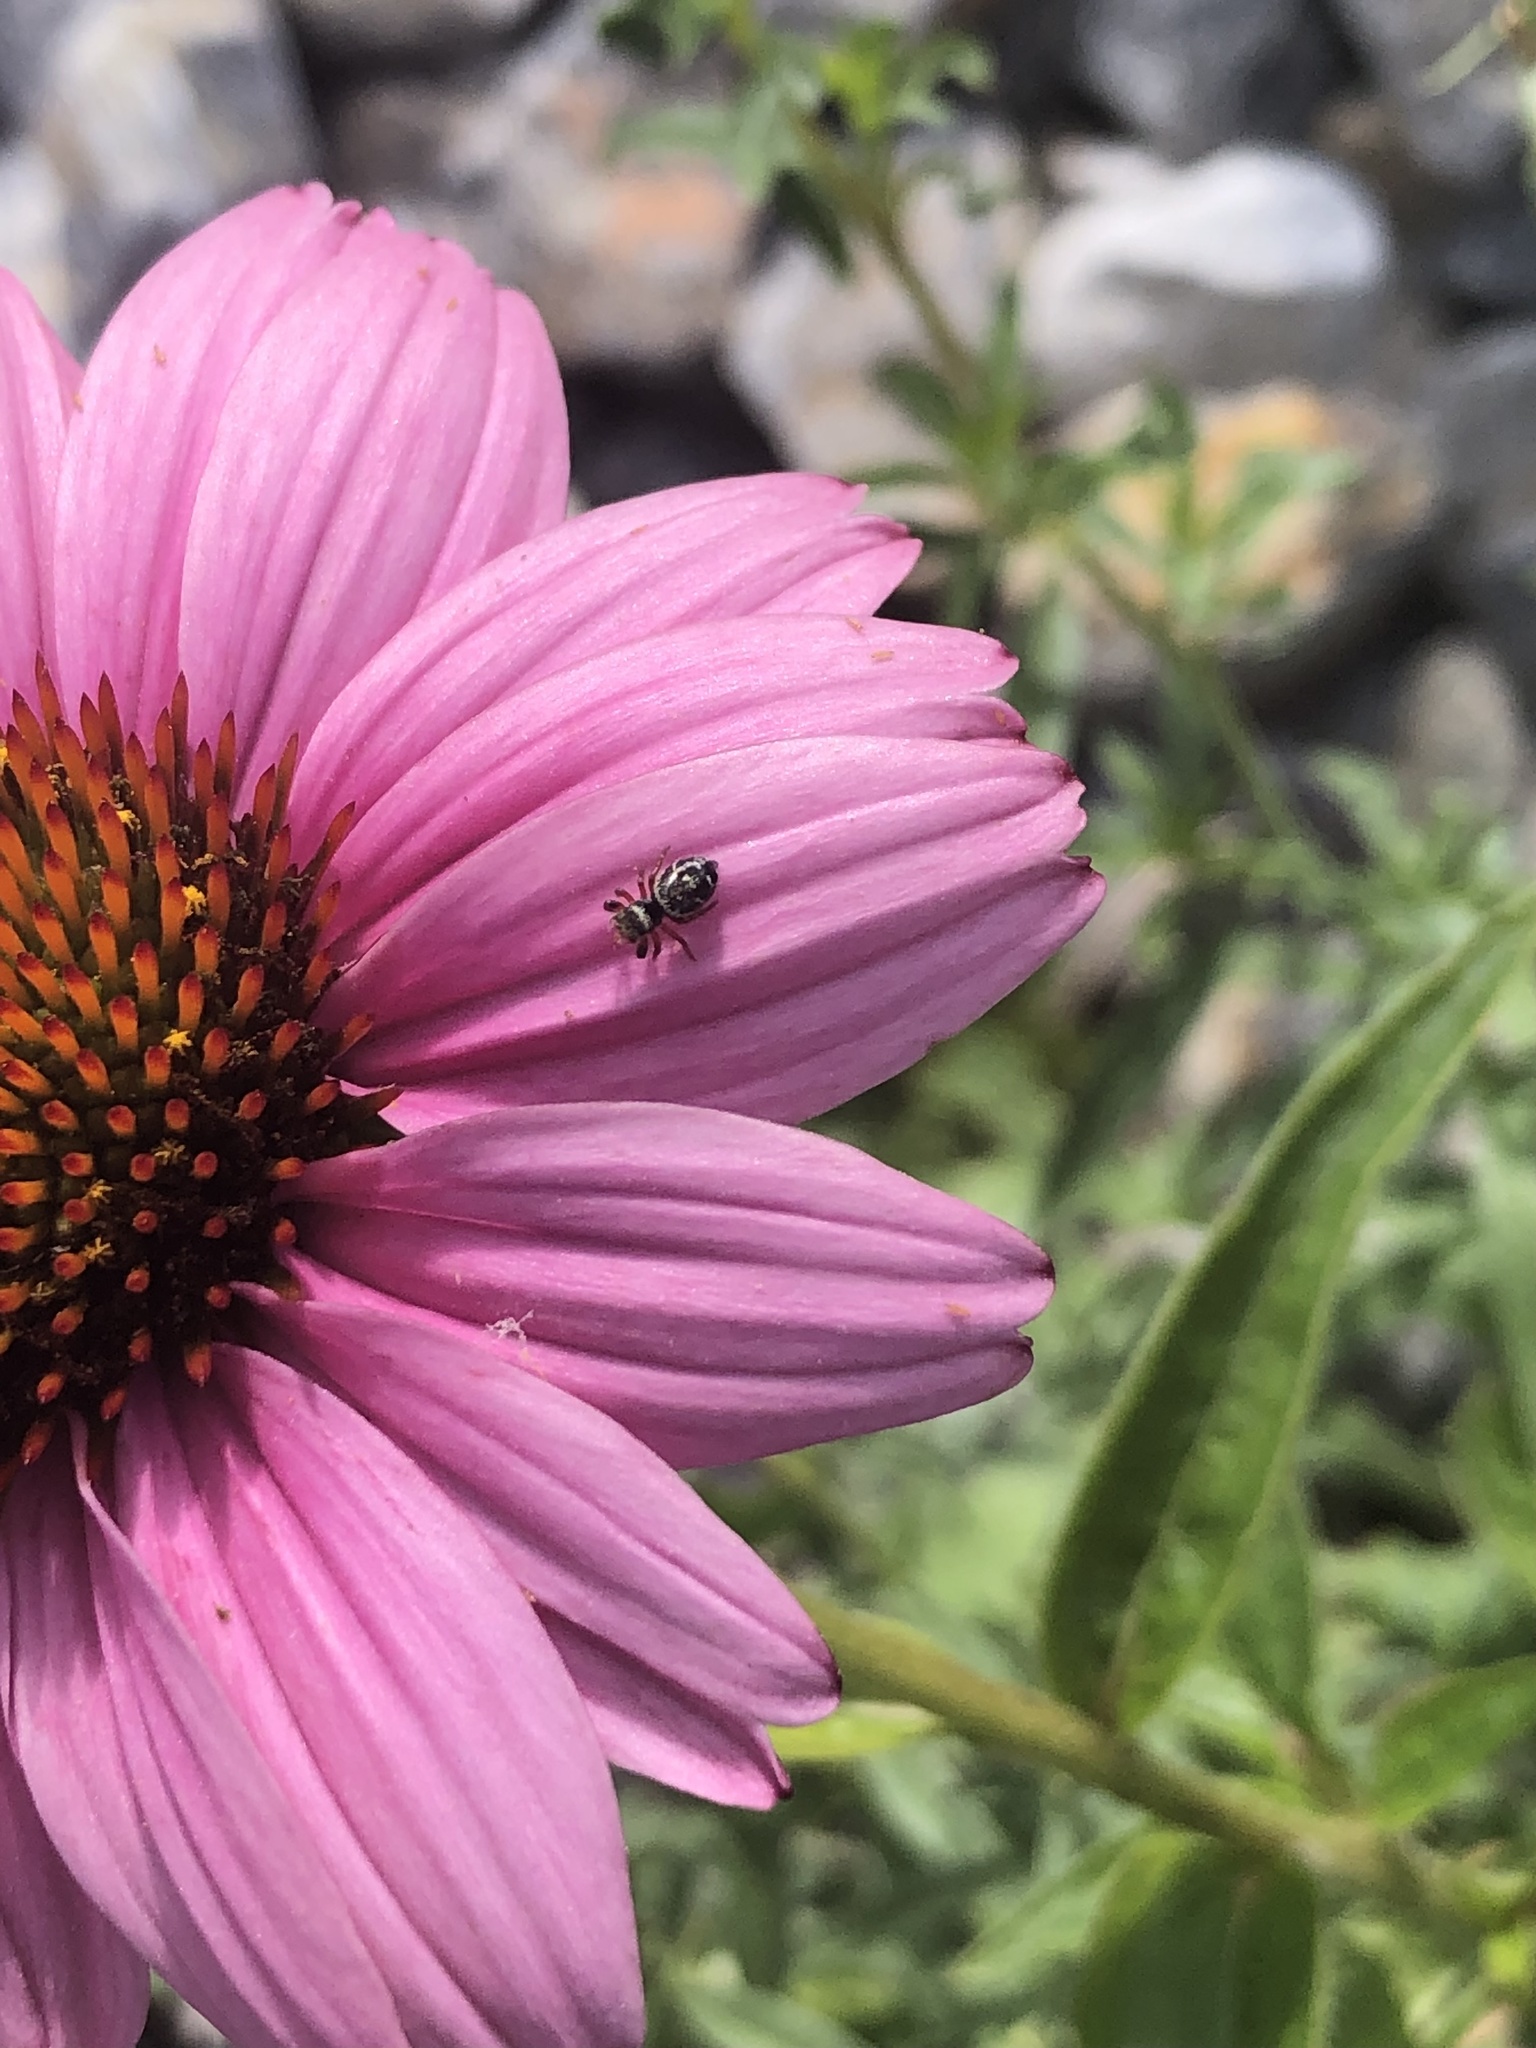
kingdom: Animalia
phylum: Arthropoda
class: Arachnida
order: Araneae
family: Salticidae
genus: Phidippus
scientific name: Phidippus audax
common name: Bold jumper
